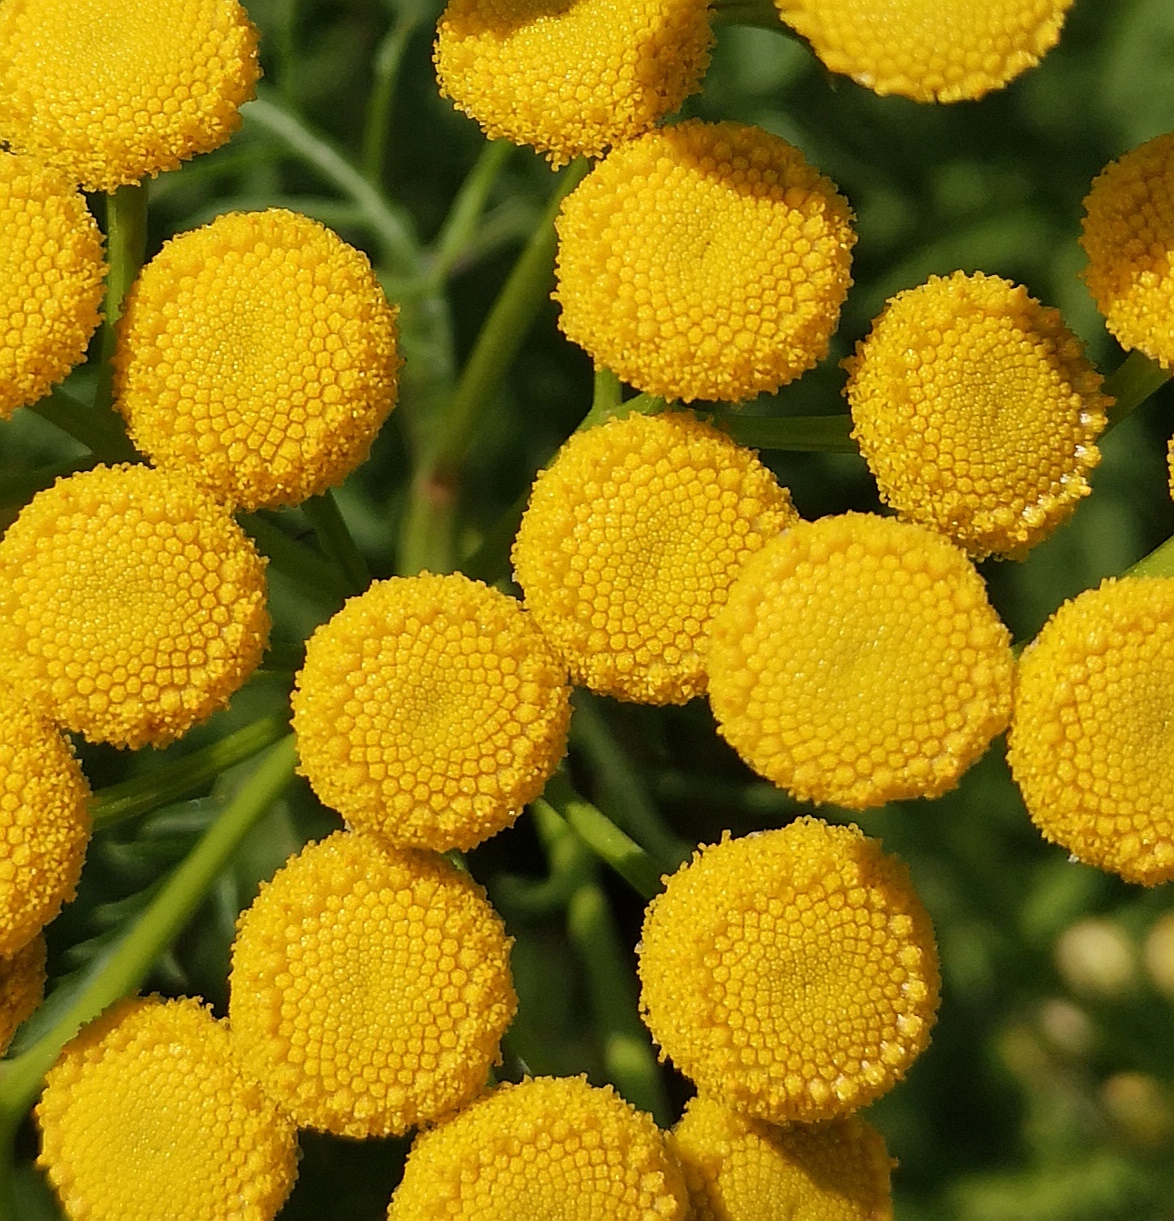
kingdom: Plantae
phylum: Tracheophyta
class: Magnoliopsida
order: Asterales
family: Asteraceae
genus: Tanacetum
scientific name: Tanacetum vulgare
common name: Common tansy
